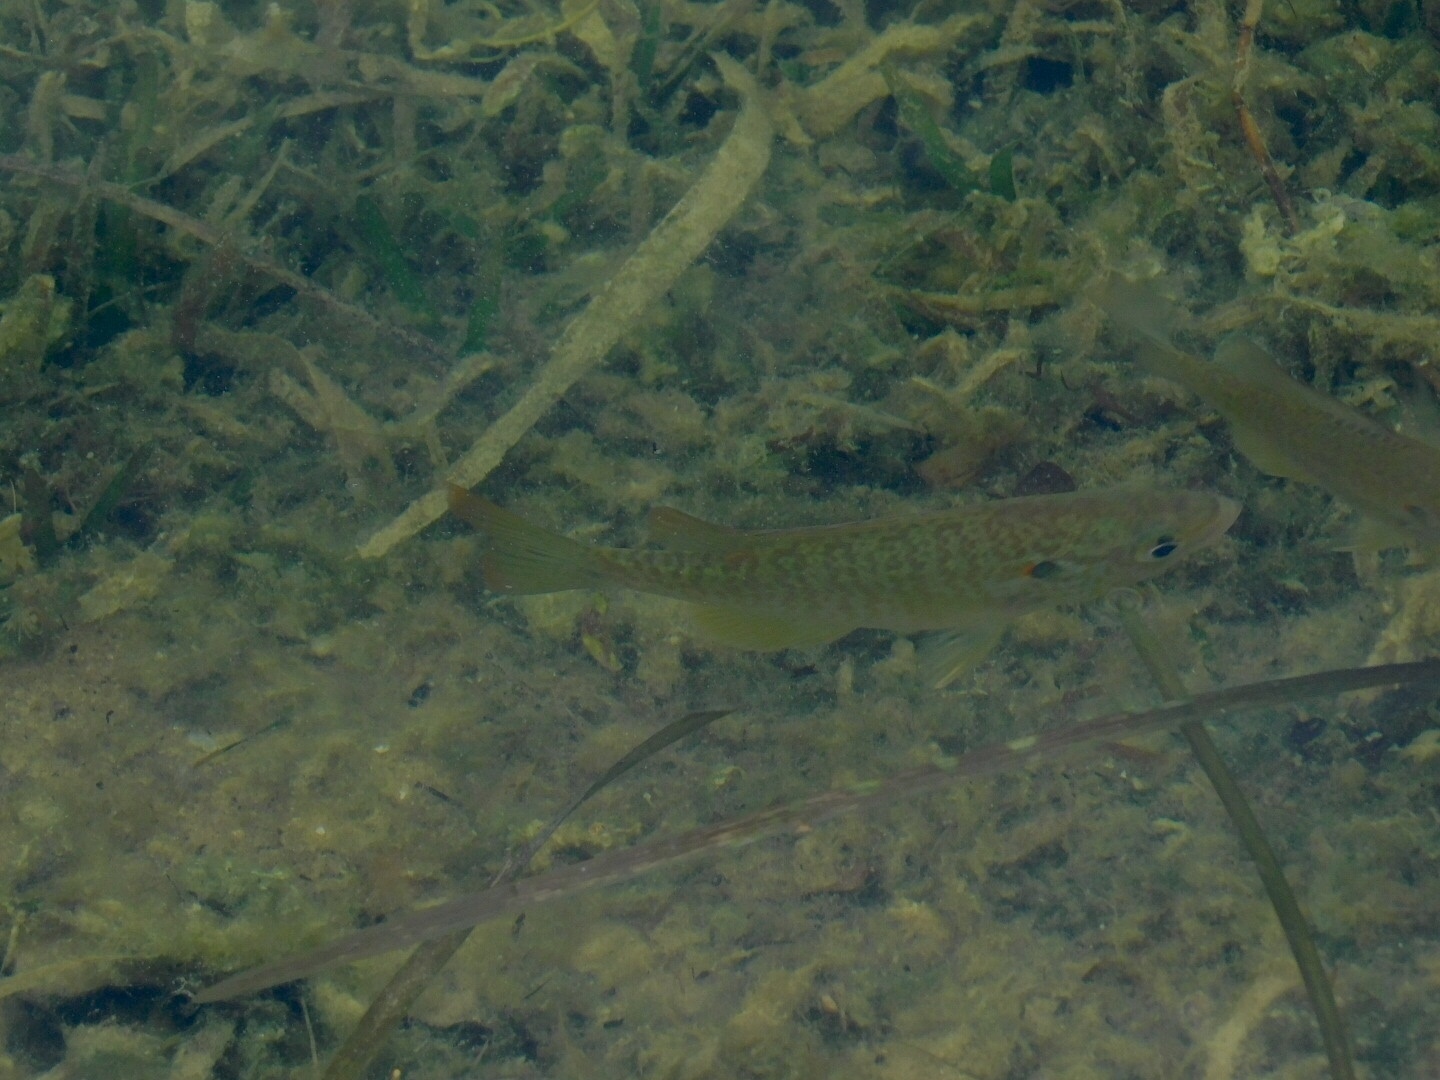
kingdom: Animalia
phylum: Chordata
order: Perciformes
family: Centrarchidae
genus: Lepomis
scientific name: Lepomis microlophus
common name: Redear sunfish
